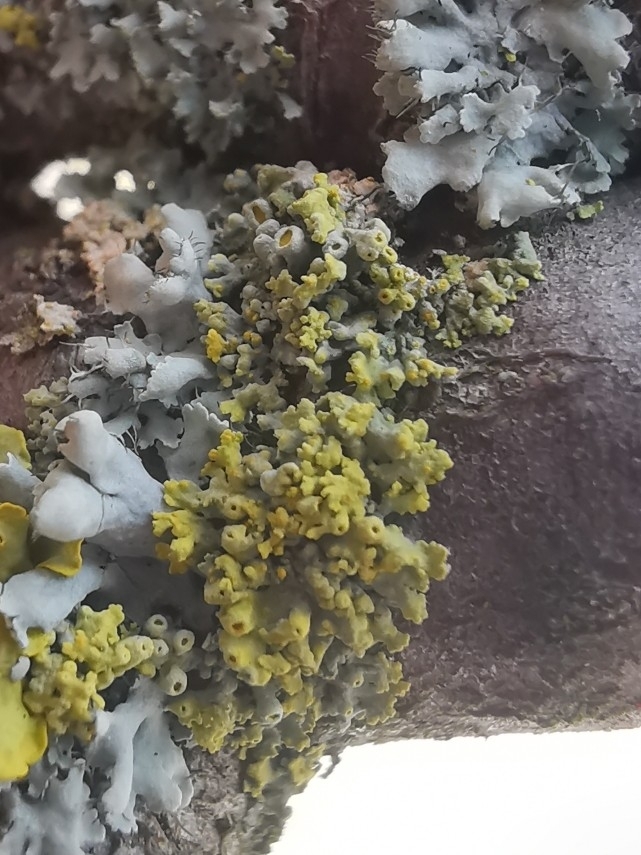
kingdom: Fungi
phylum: Ascomycota
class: Lecanoromycetes
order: Teloschistales
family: Teloschistaceae
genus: Polycauliona
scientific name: Polycauliona polycarpa
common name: Pin-cushion sunburst lichen
